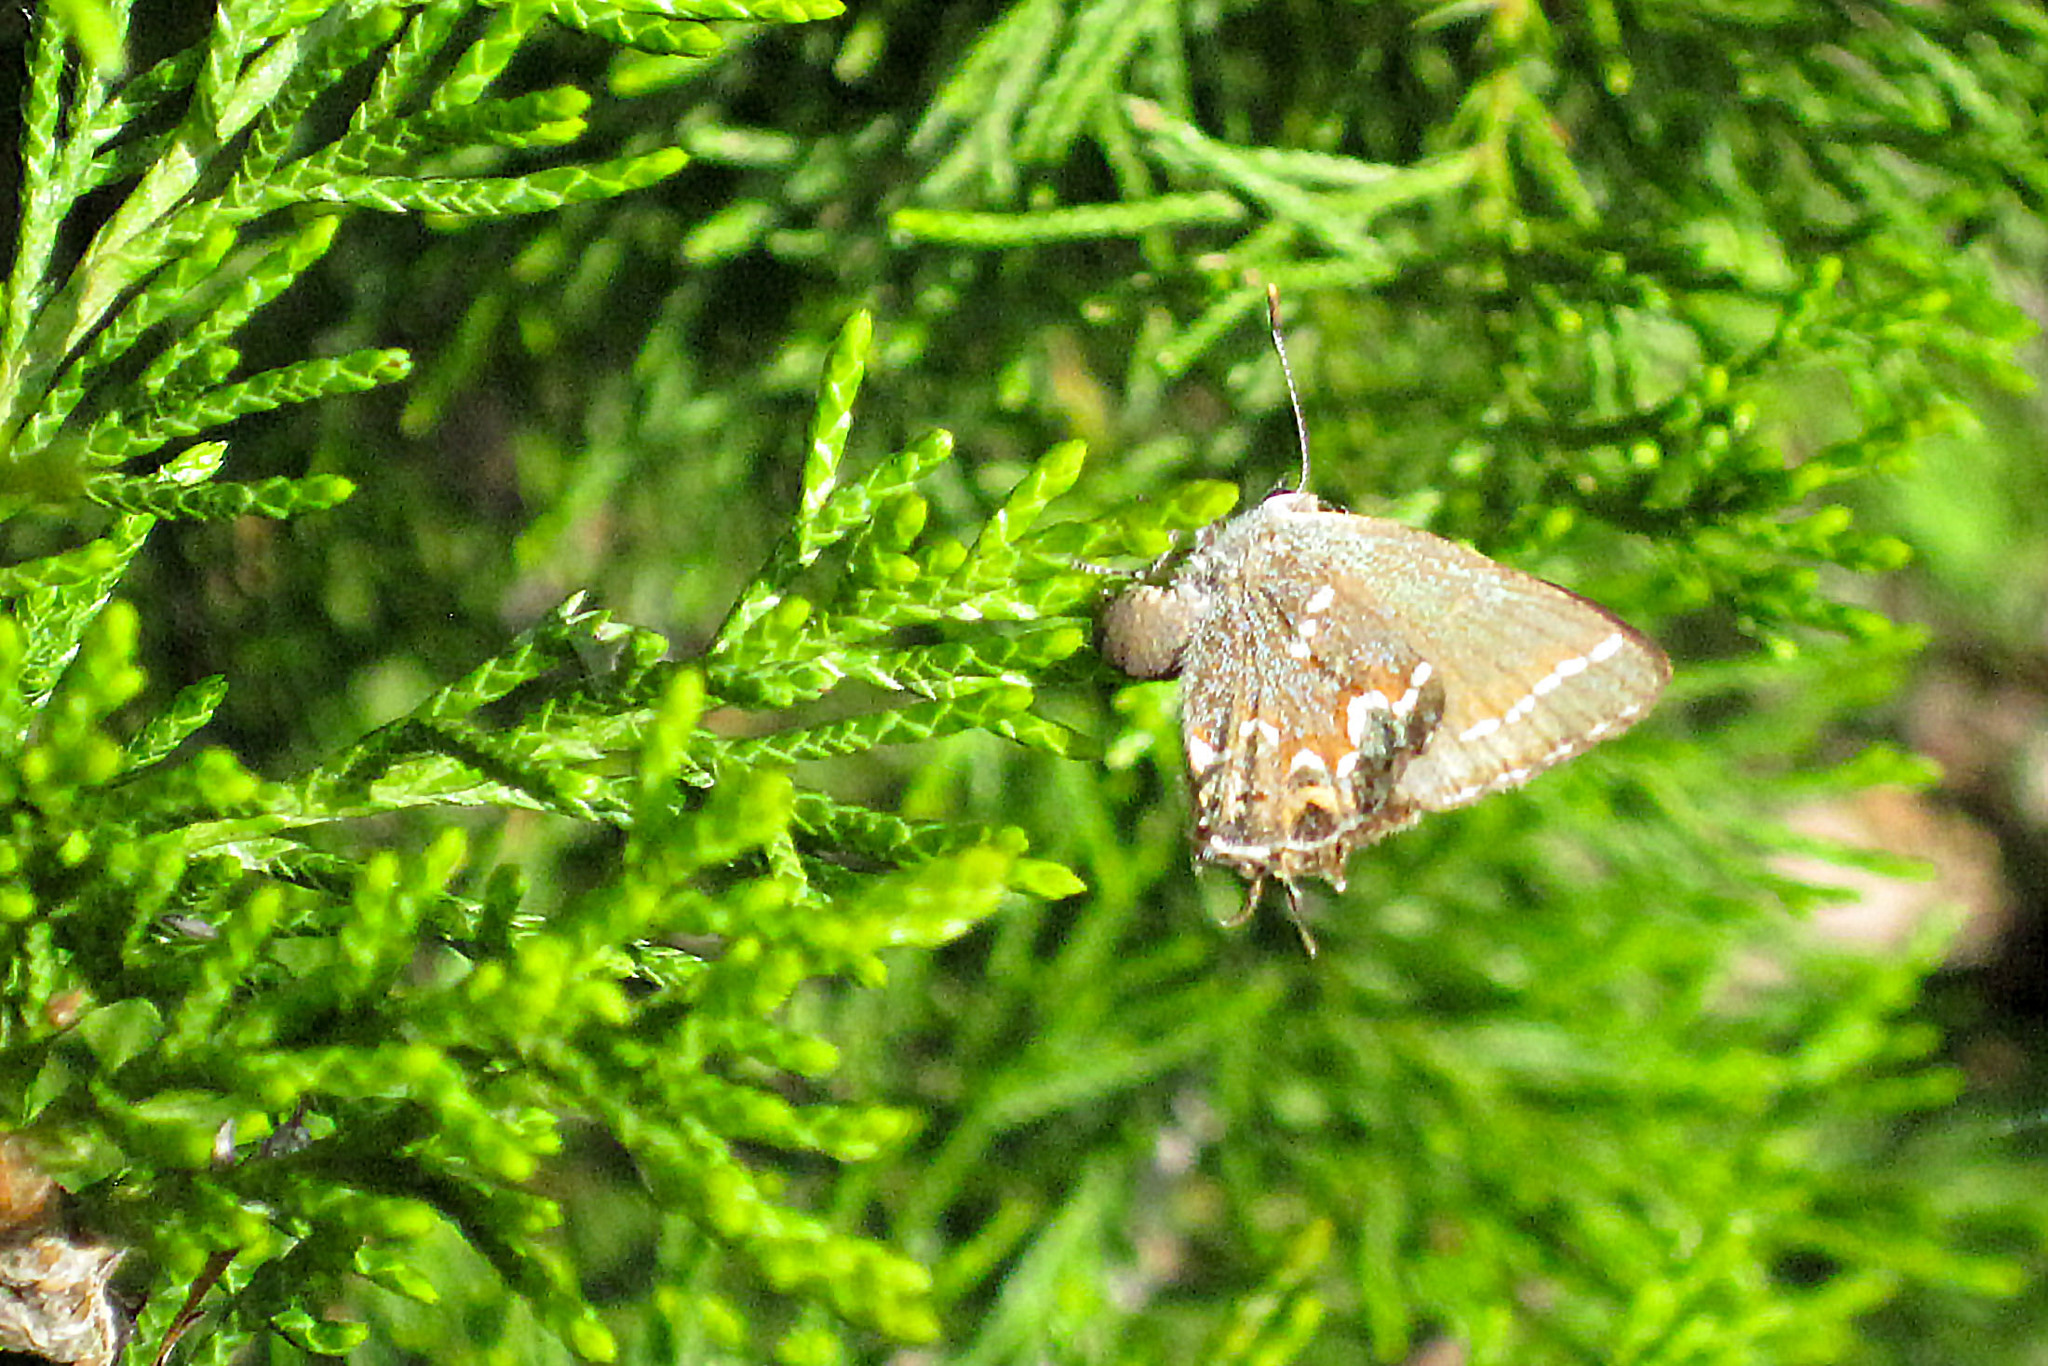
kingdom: Animalia
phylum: Arthropoda
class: Insecta
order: Lepidoptera
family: Lycaenidae
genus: Mitoura
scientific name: Mitoura gryneus
